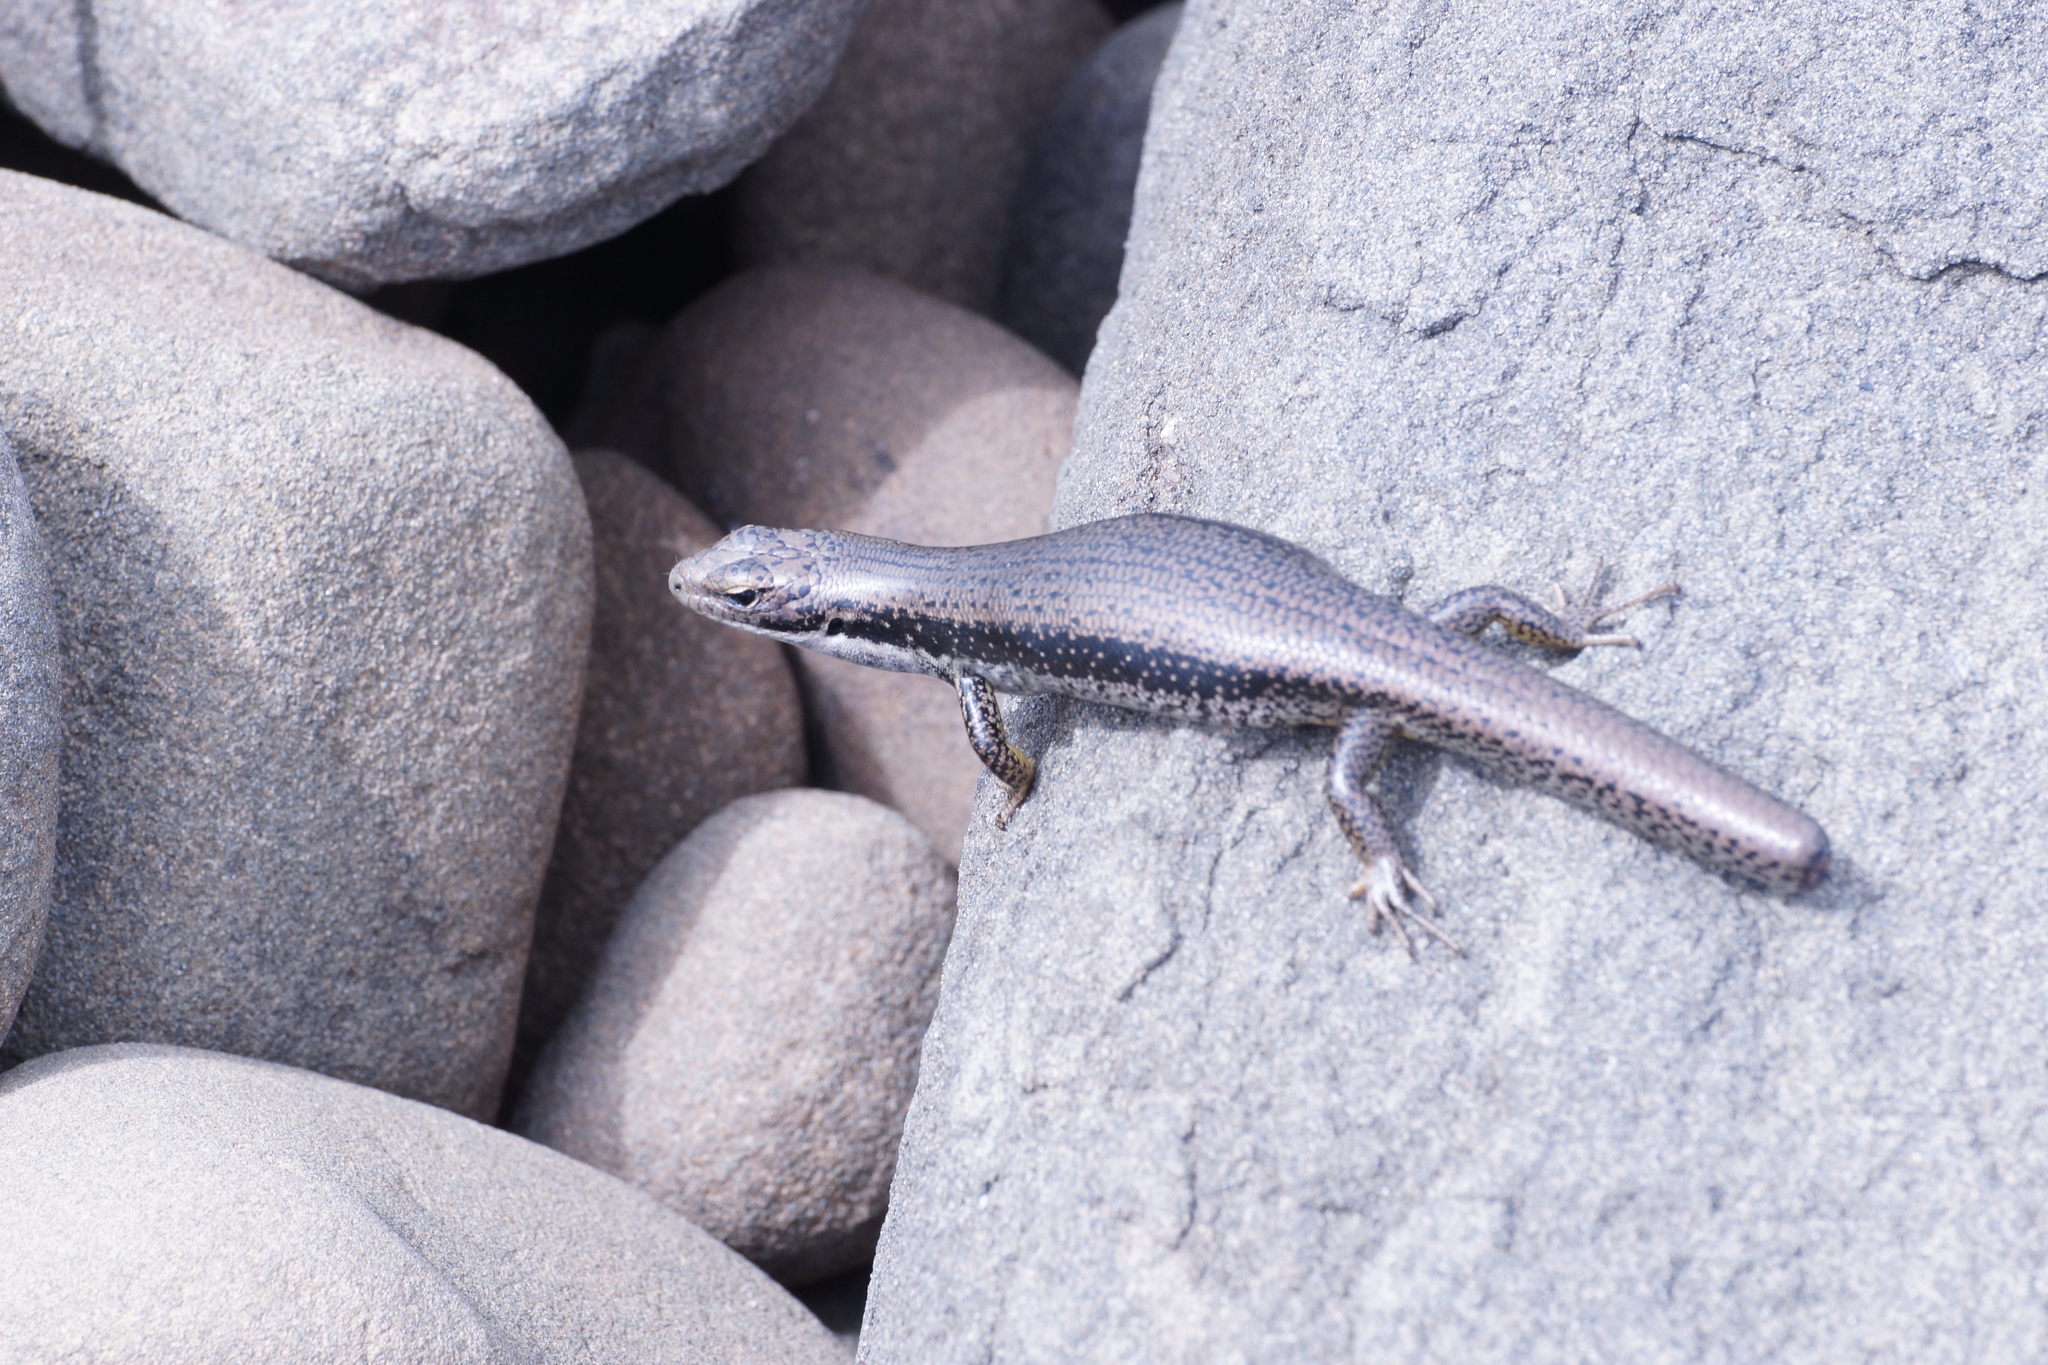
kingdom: Animalia
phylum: Chordata
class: Squamata
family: Scincidae
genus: Eulamprus
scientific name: Eulamprus tympanum
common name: Cool-temperate water-skink
